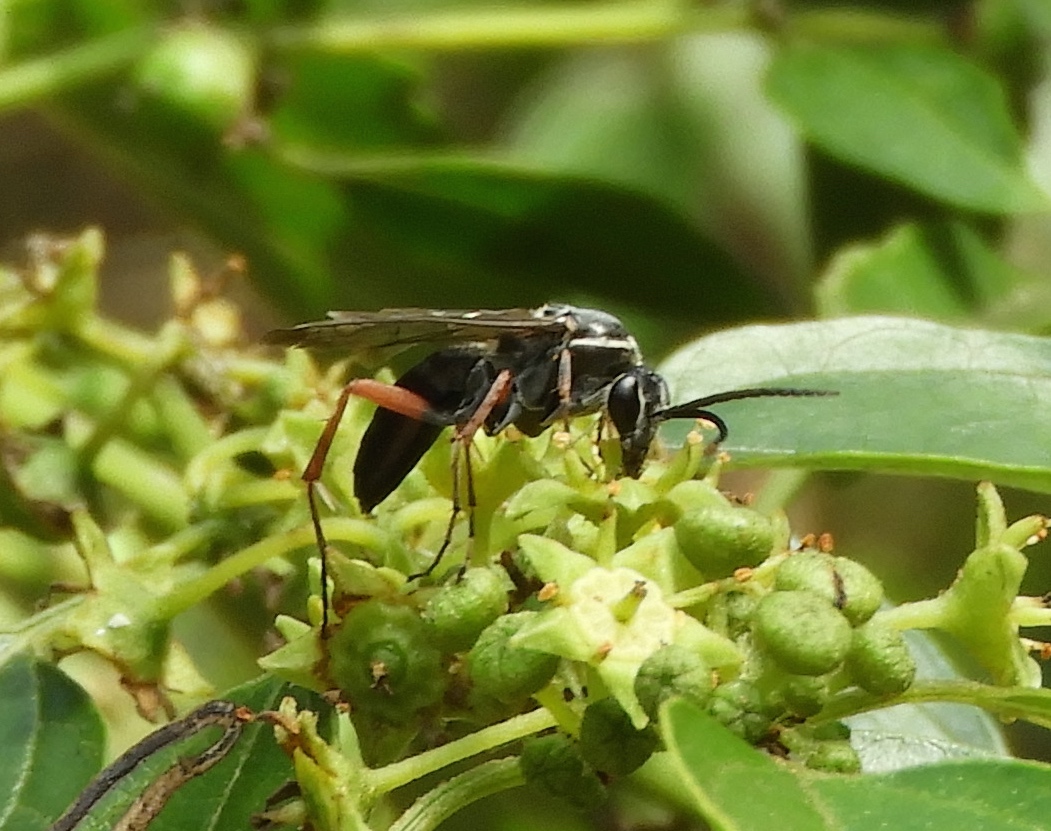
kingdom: Animalia
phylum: Arthropoda
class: Insecta
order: Hymenoptera
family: Pompilidae
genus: Episyron
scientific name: Episyron conterminus
